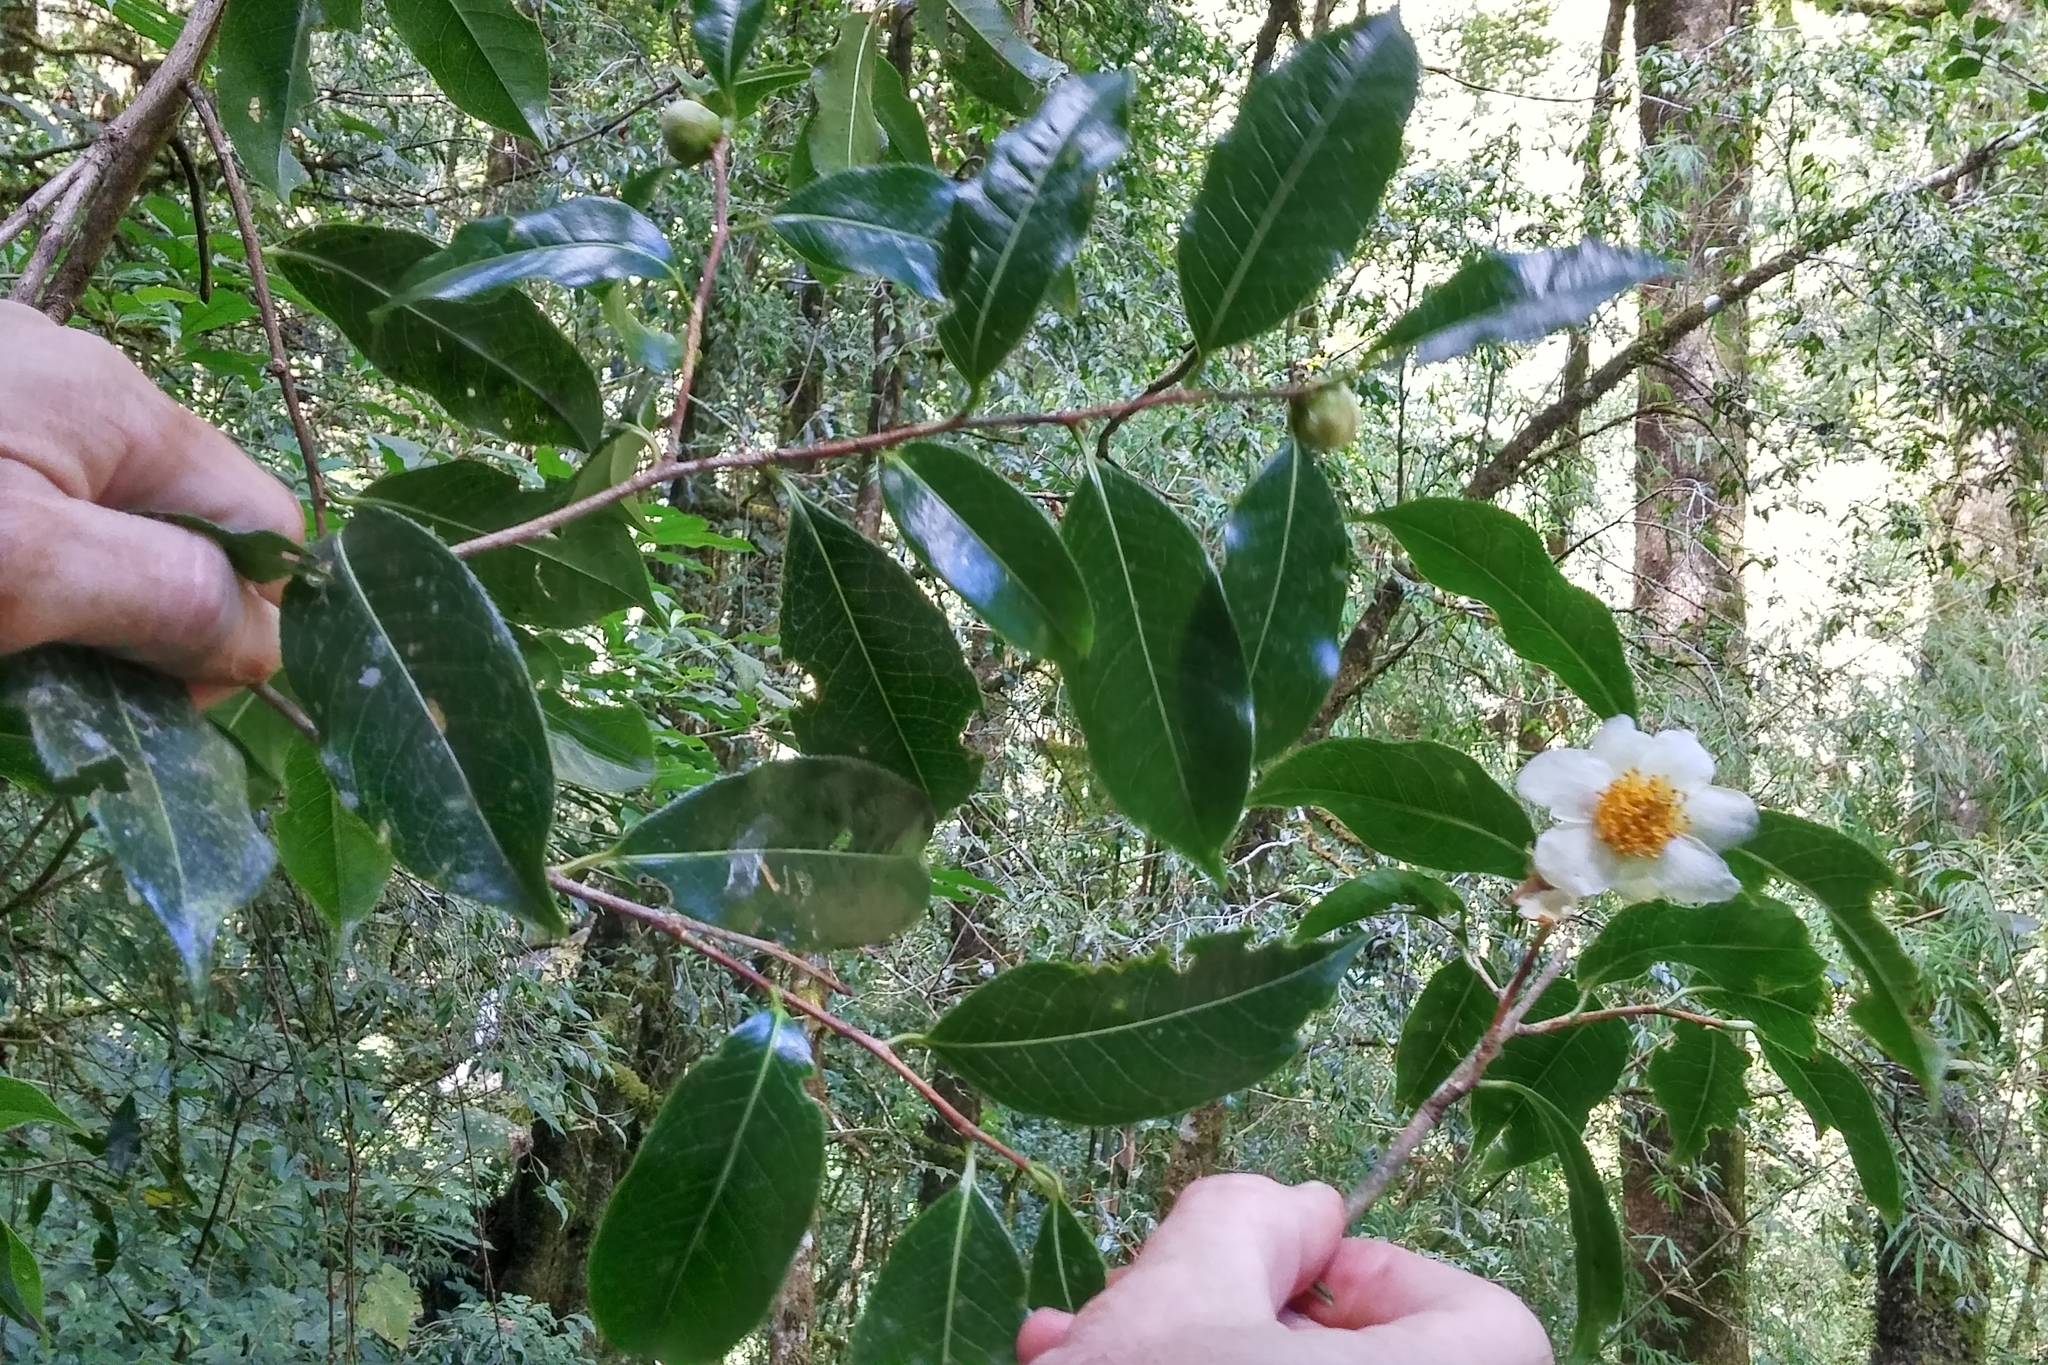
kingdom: Plantae
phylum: Tracheophyta
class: Magnoliopsida
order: Ericales
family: Theaceae
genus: Camellia
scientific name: Camellia sinensis
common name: Tea
